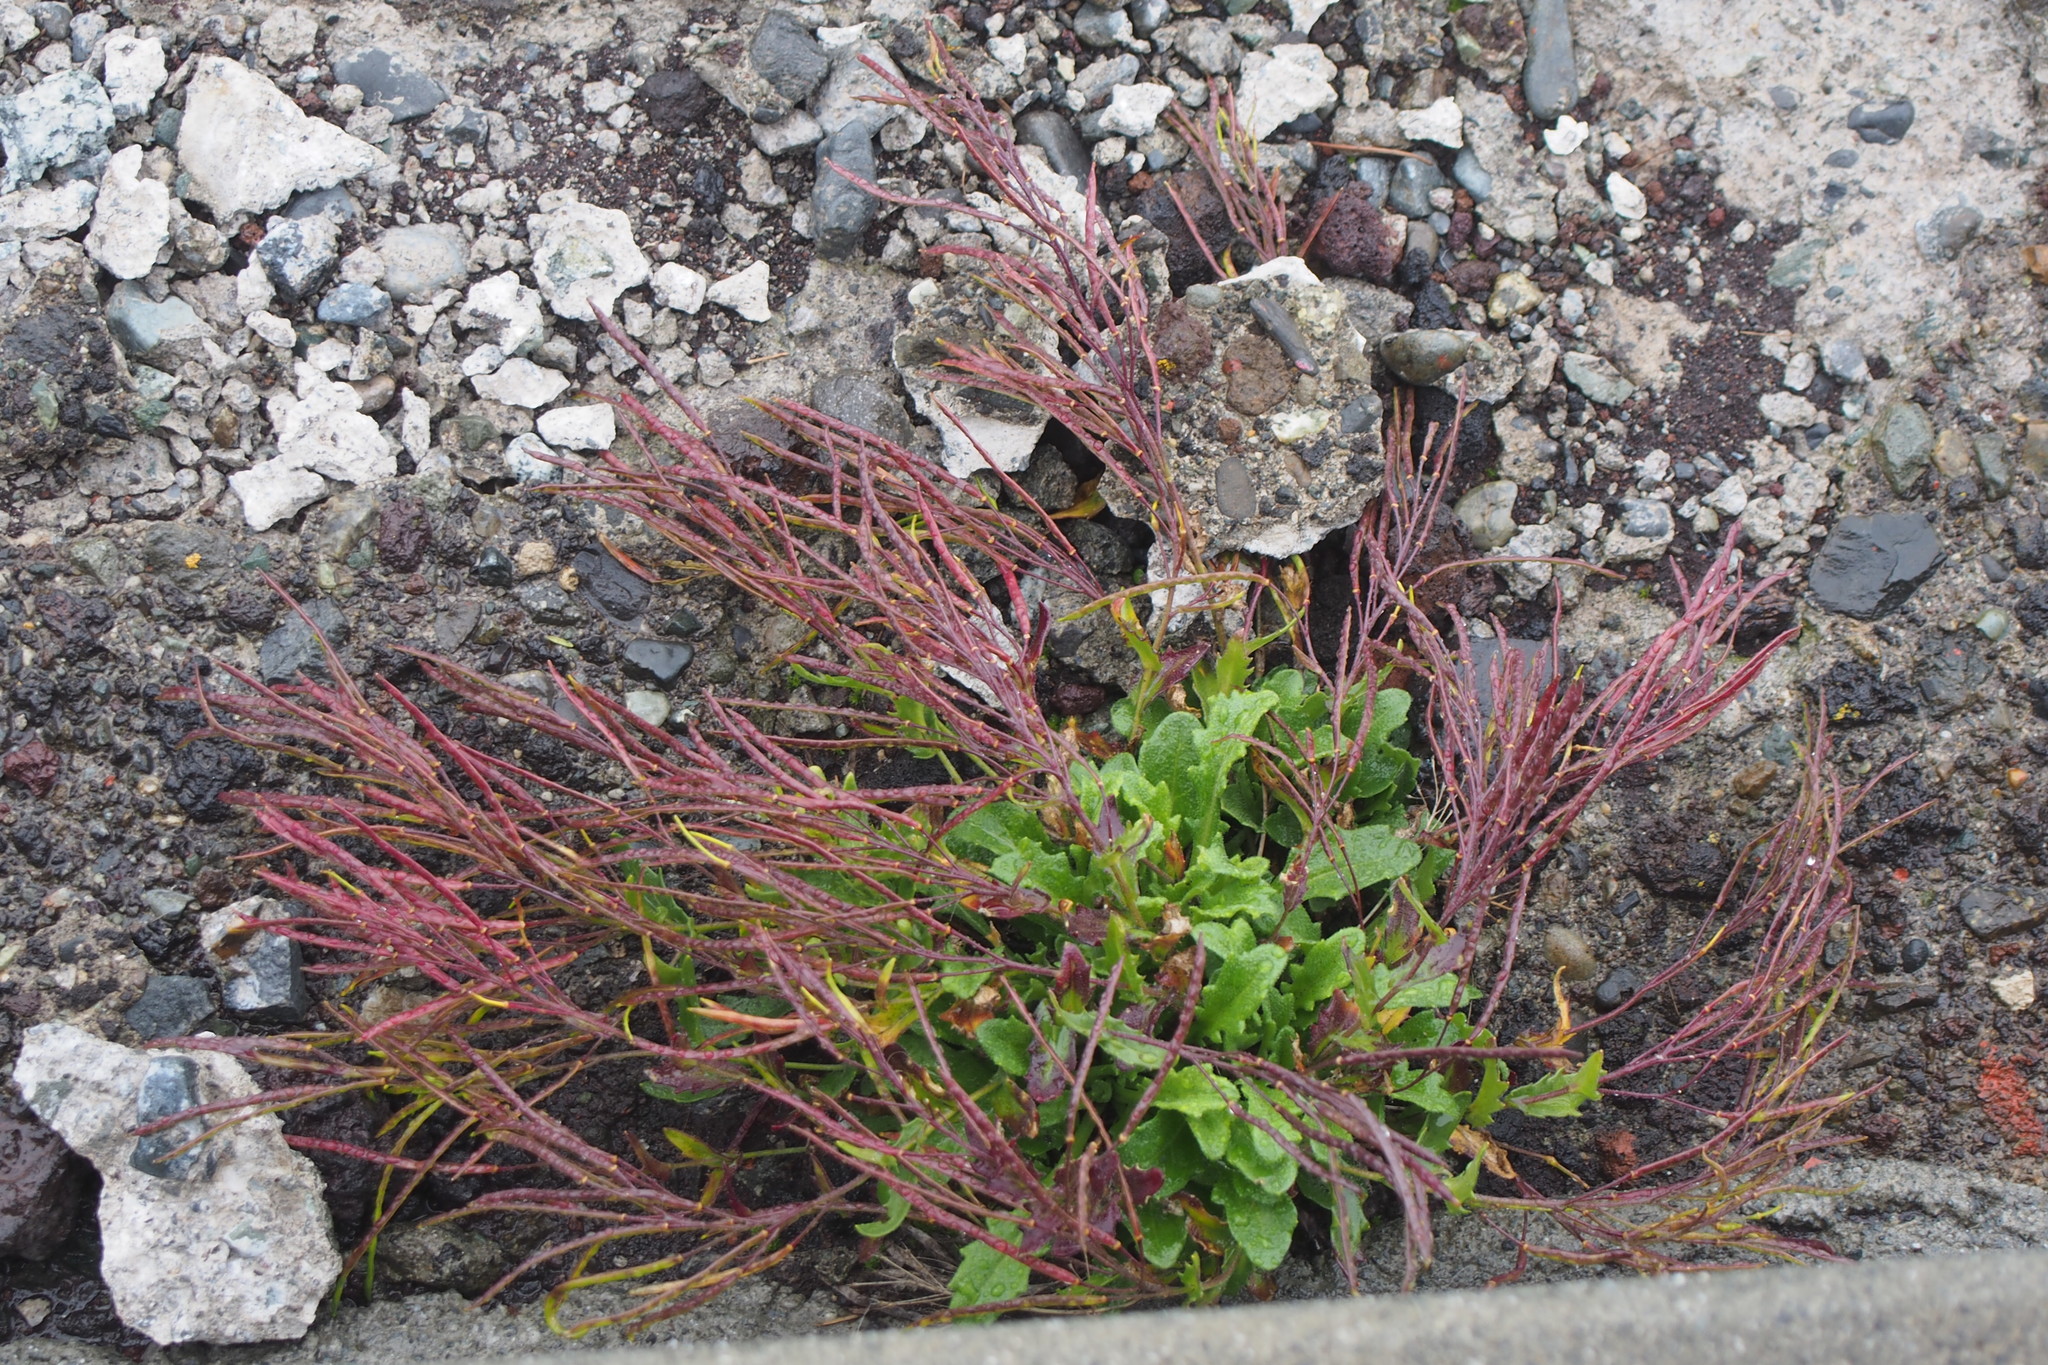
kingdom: Plantae
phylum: Tracheophyta
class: Magnoliopsida
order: Brassicales
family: Brassicaceae
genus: Arabis
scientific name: Arabis serrata
